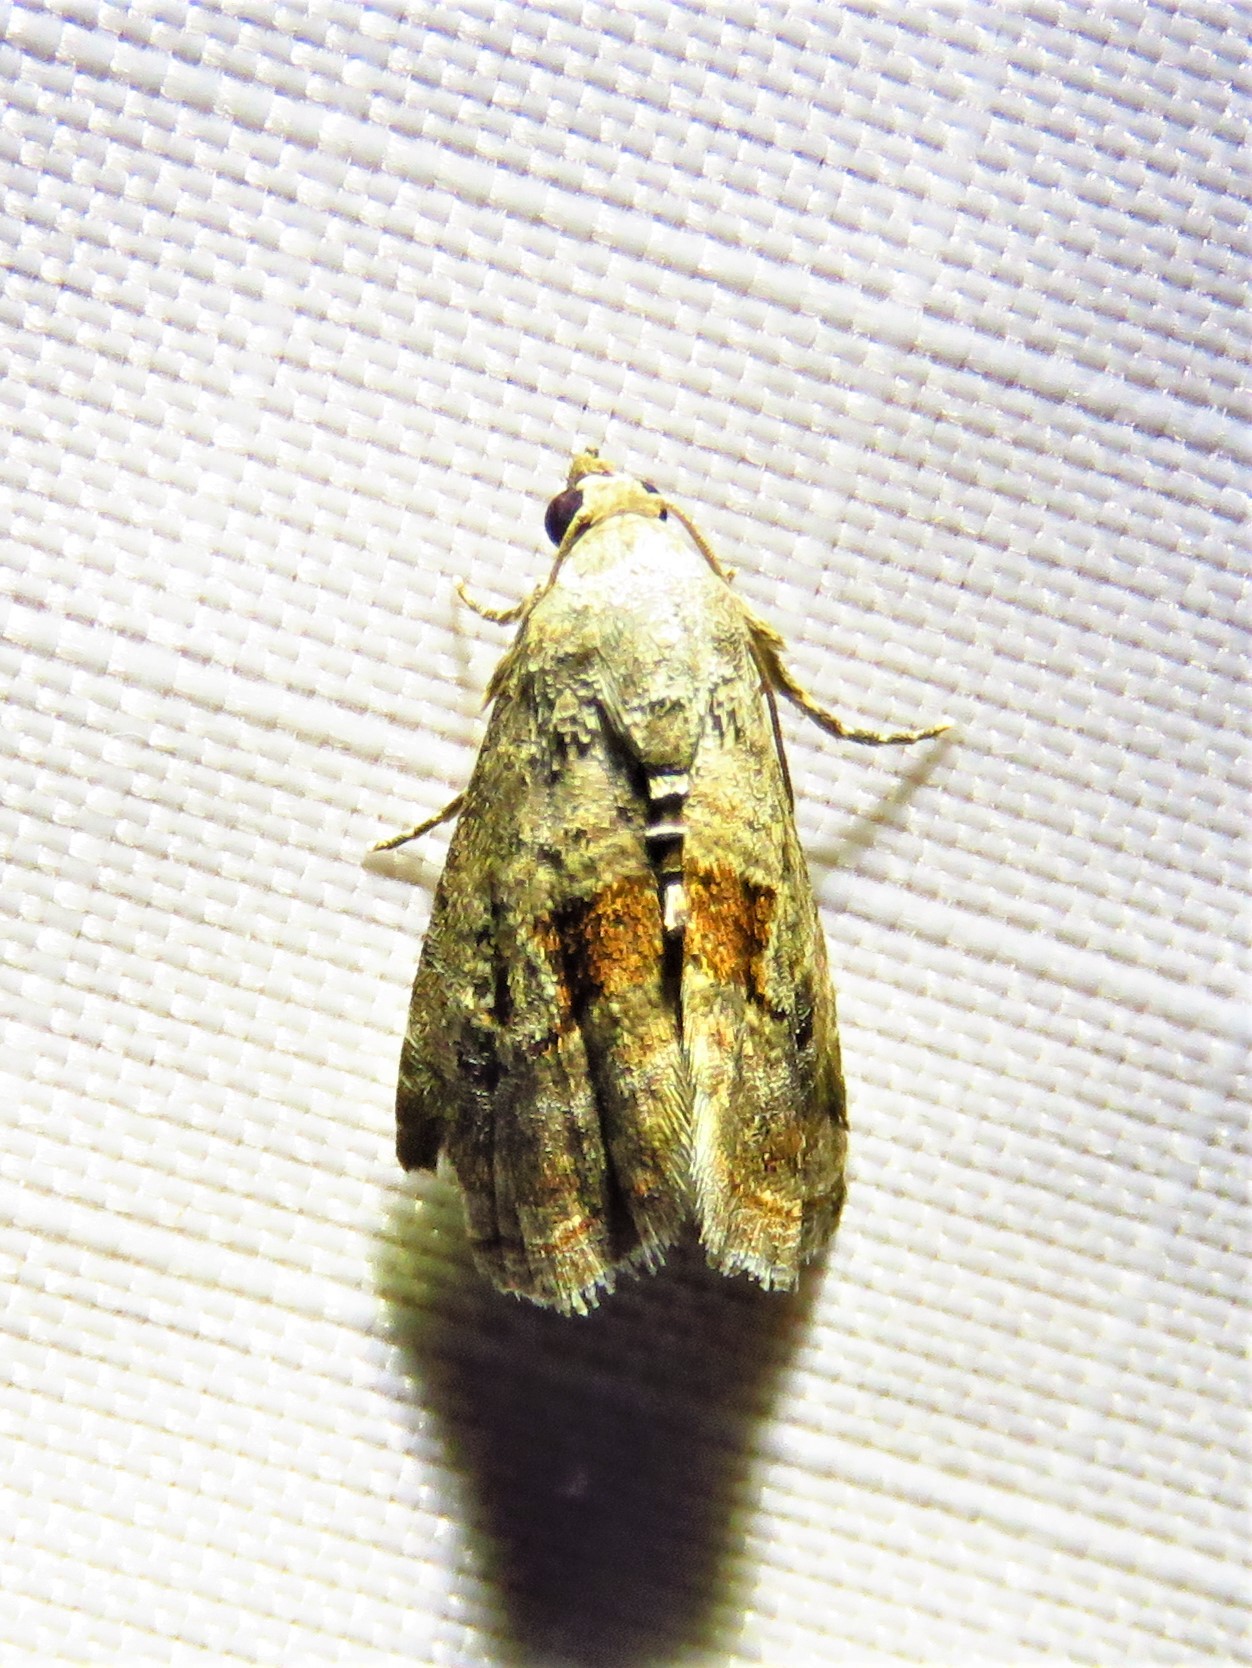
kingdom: Animalia
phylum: Arthropoda
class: Insecta
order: Lepidoptera
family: Noctuidae
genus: Tripudia
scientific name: Tripudia quadrifera
